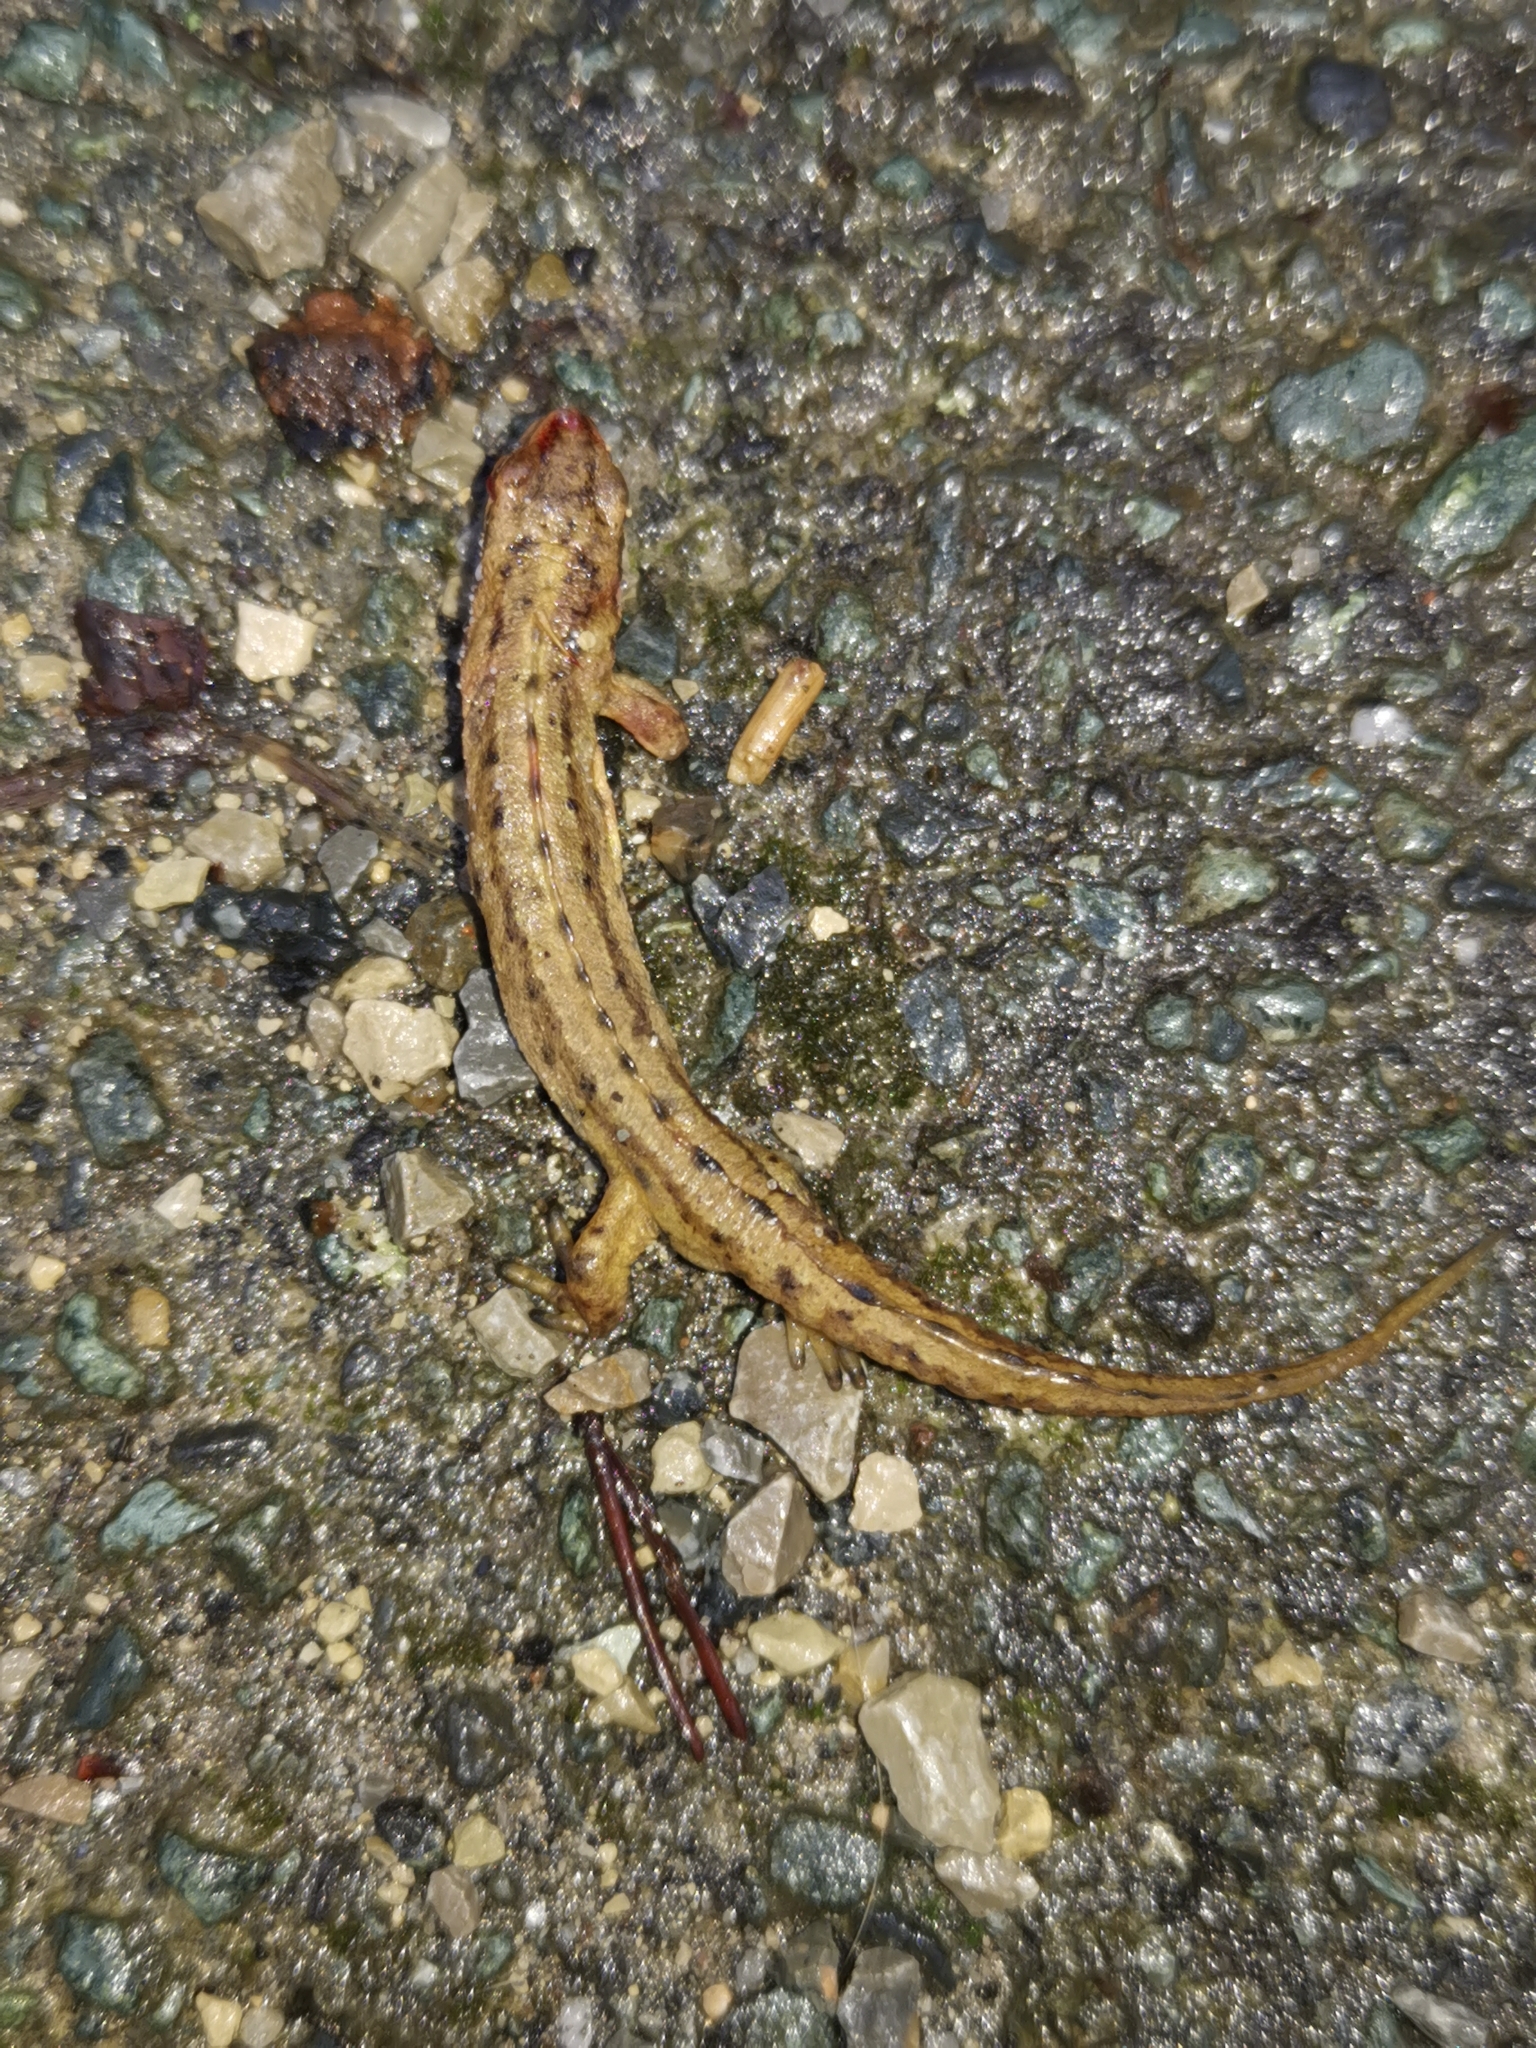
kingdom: Animalia
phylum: Chordata
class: Amphibia
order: Caudata
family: Salamandridae
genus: Lissotriton
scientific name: Lissotriton vulgaris
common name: Smooth newt
